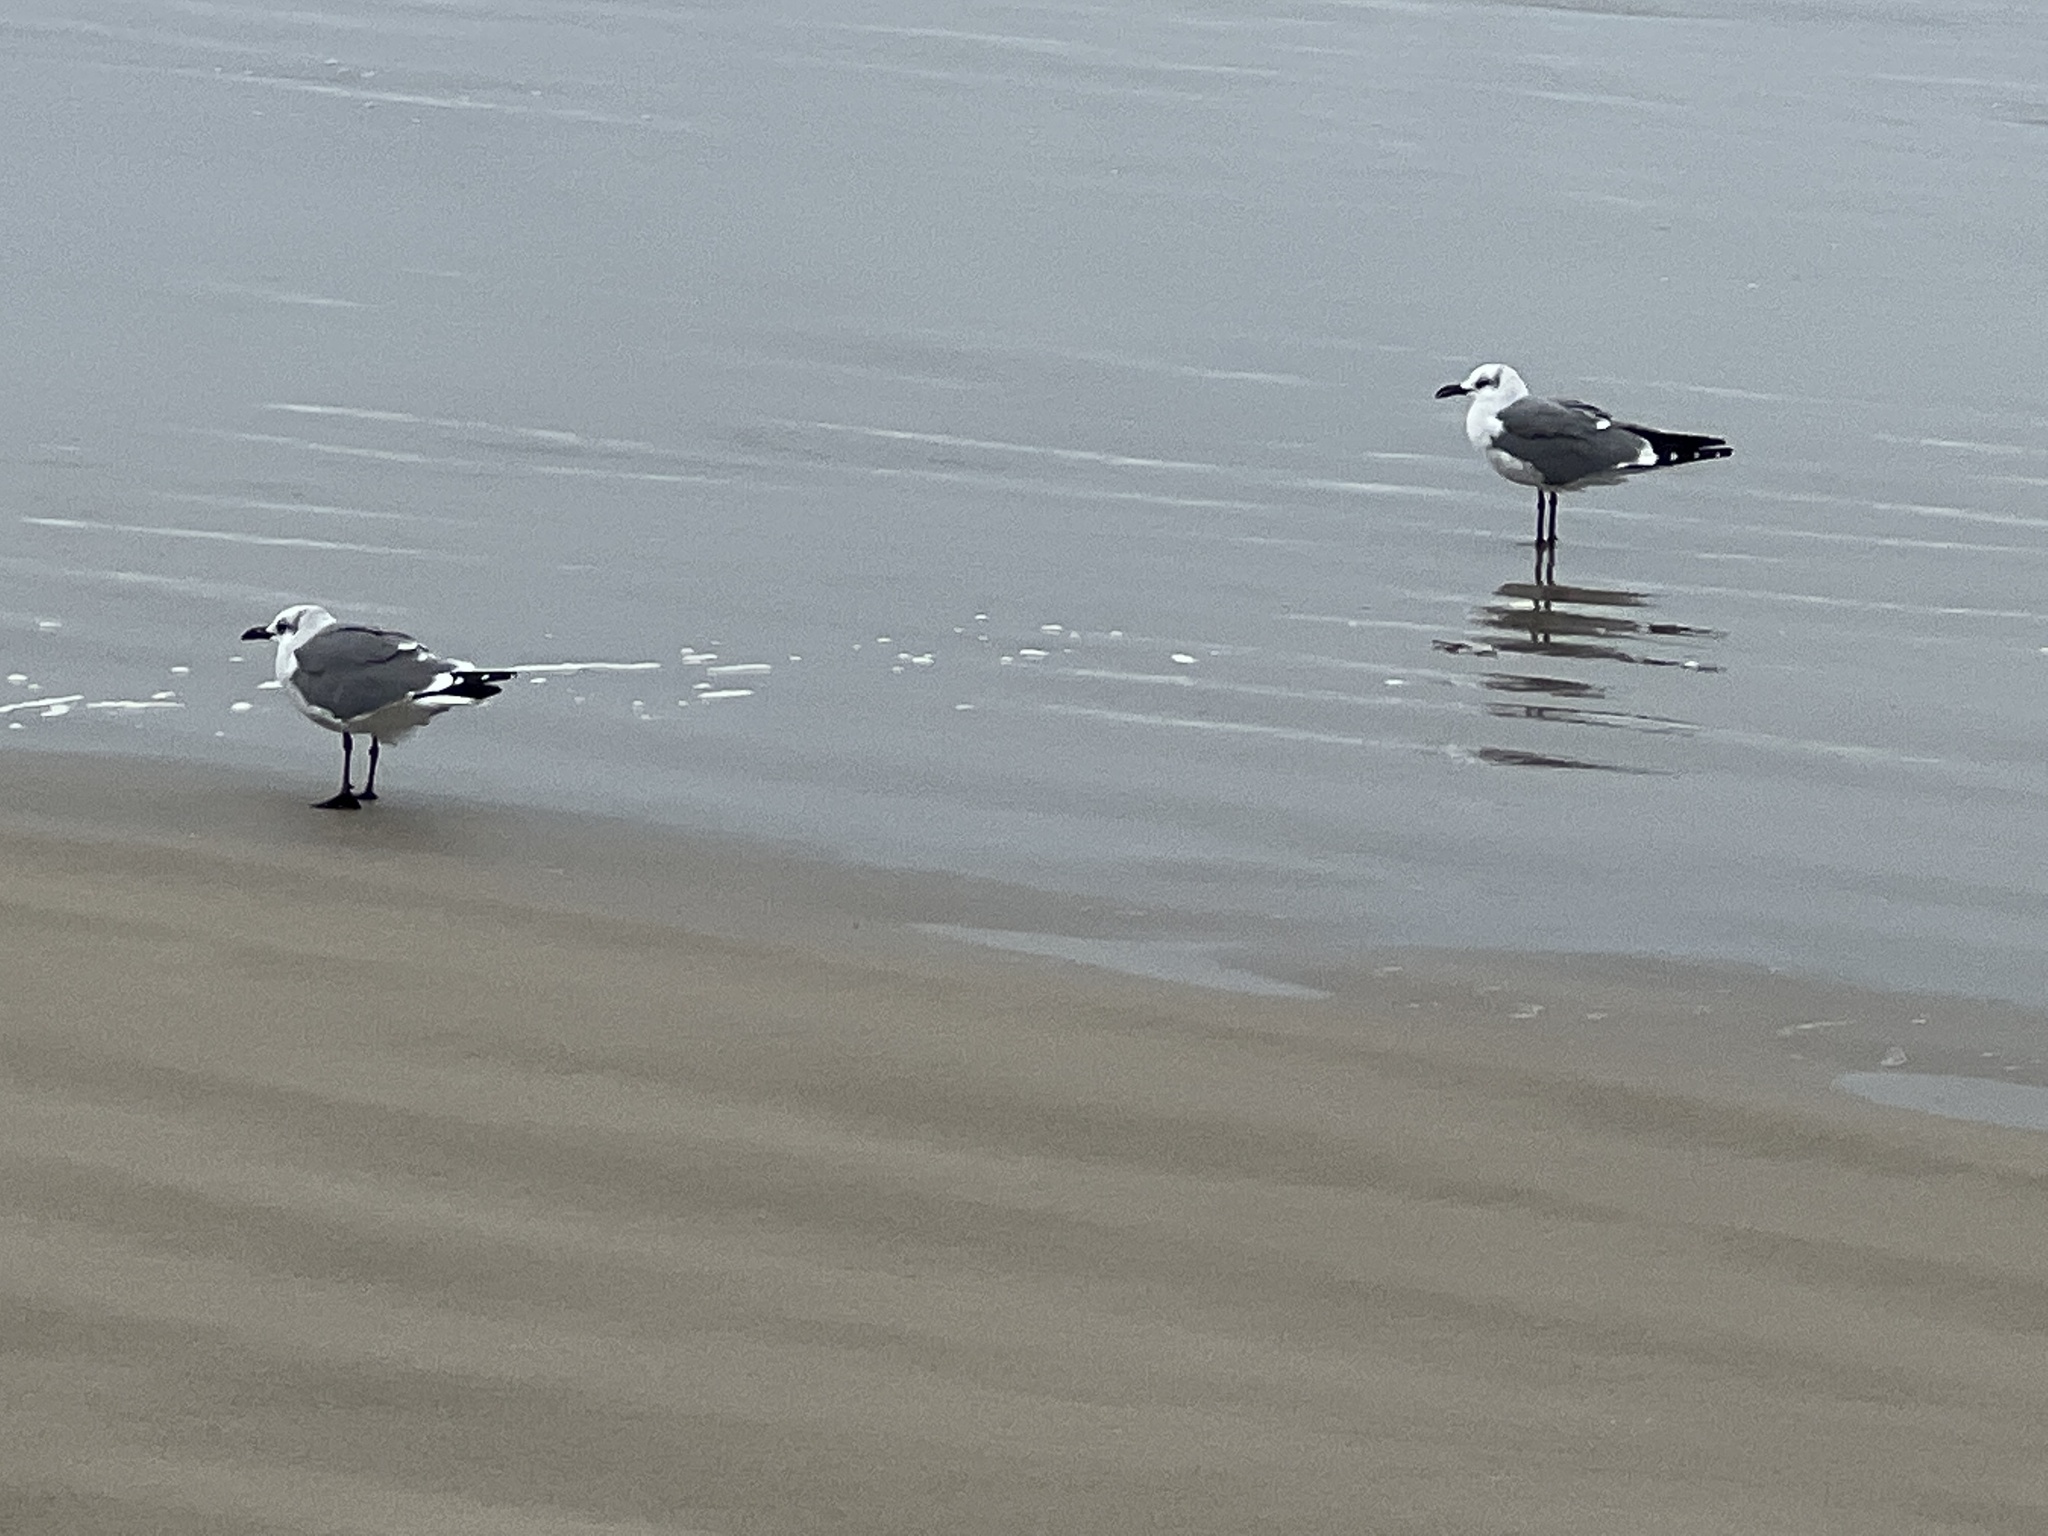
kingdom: Animalia
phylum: Chordata
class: Aves
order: Charadriiformes
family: Laridae
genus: Leucophaeus
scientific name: Leucophaeus atricilla
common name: Laughing gull
